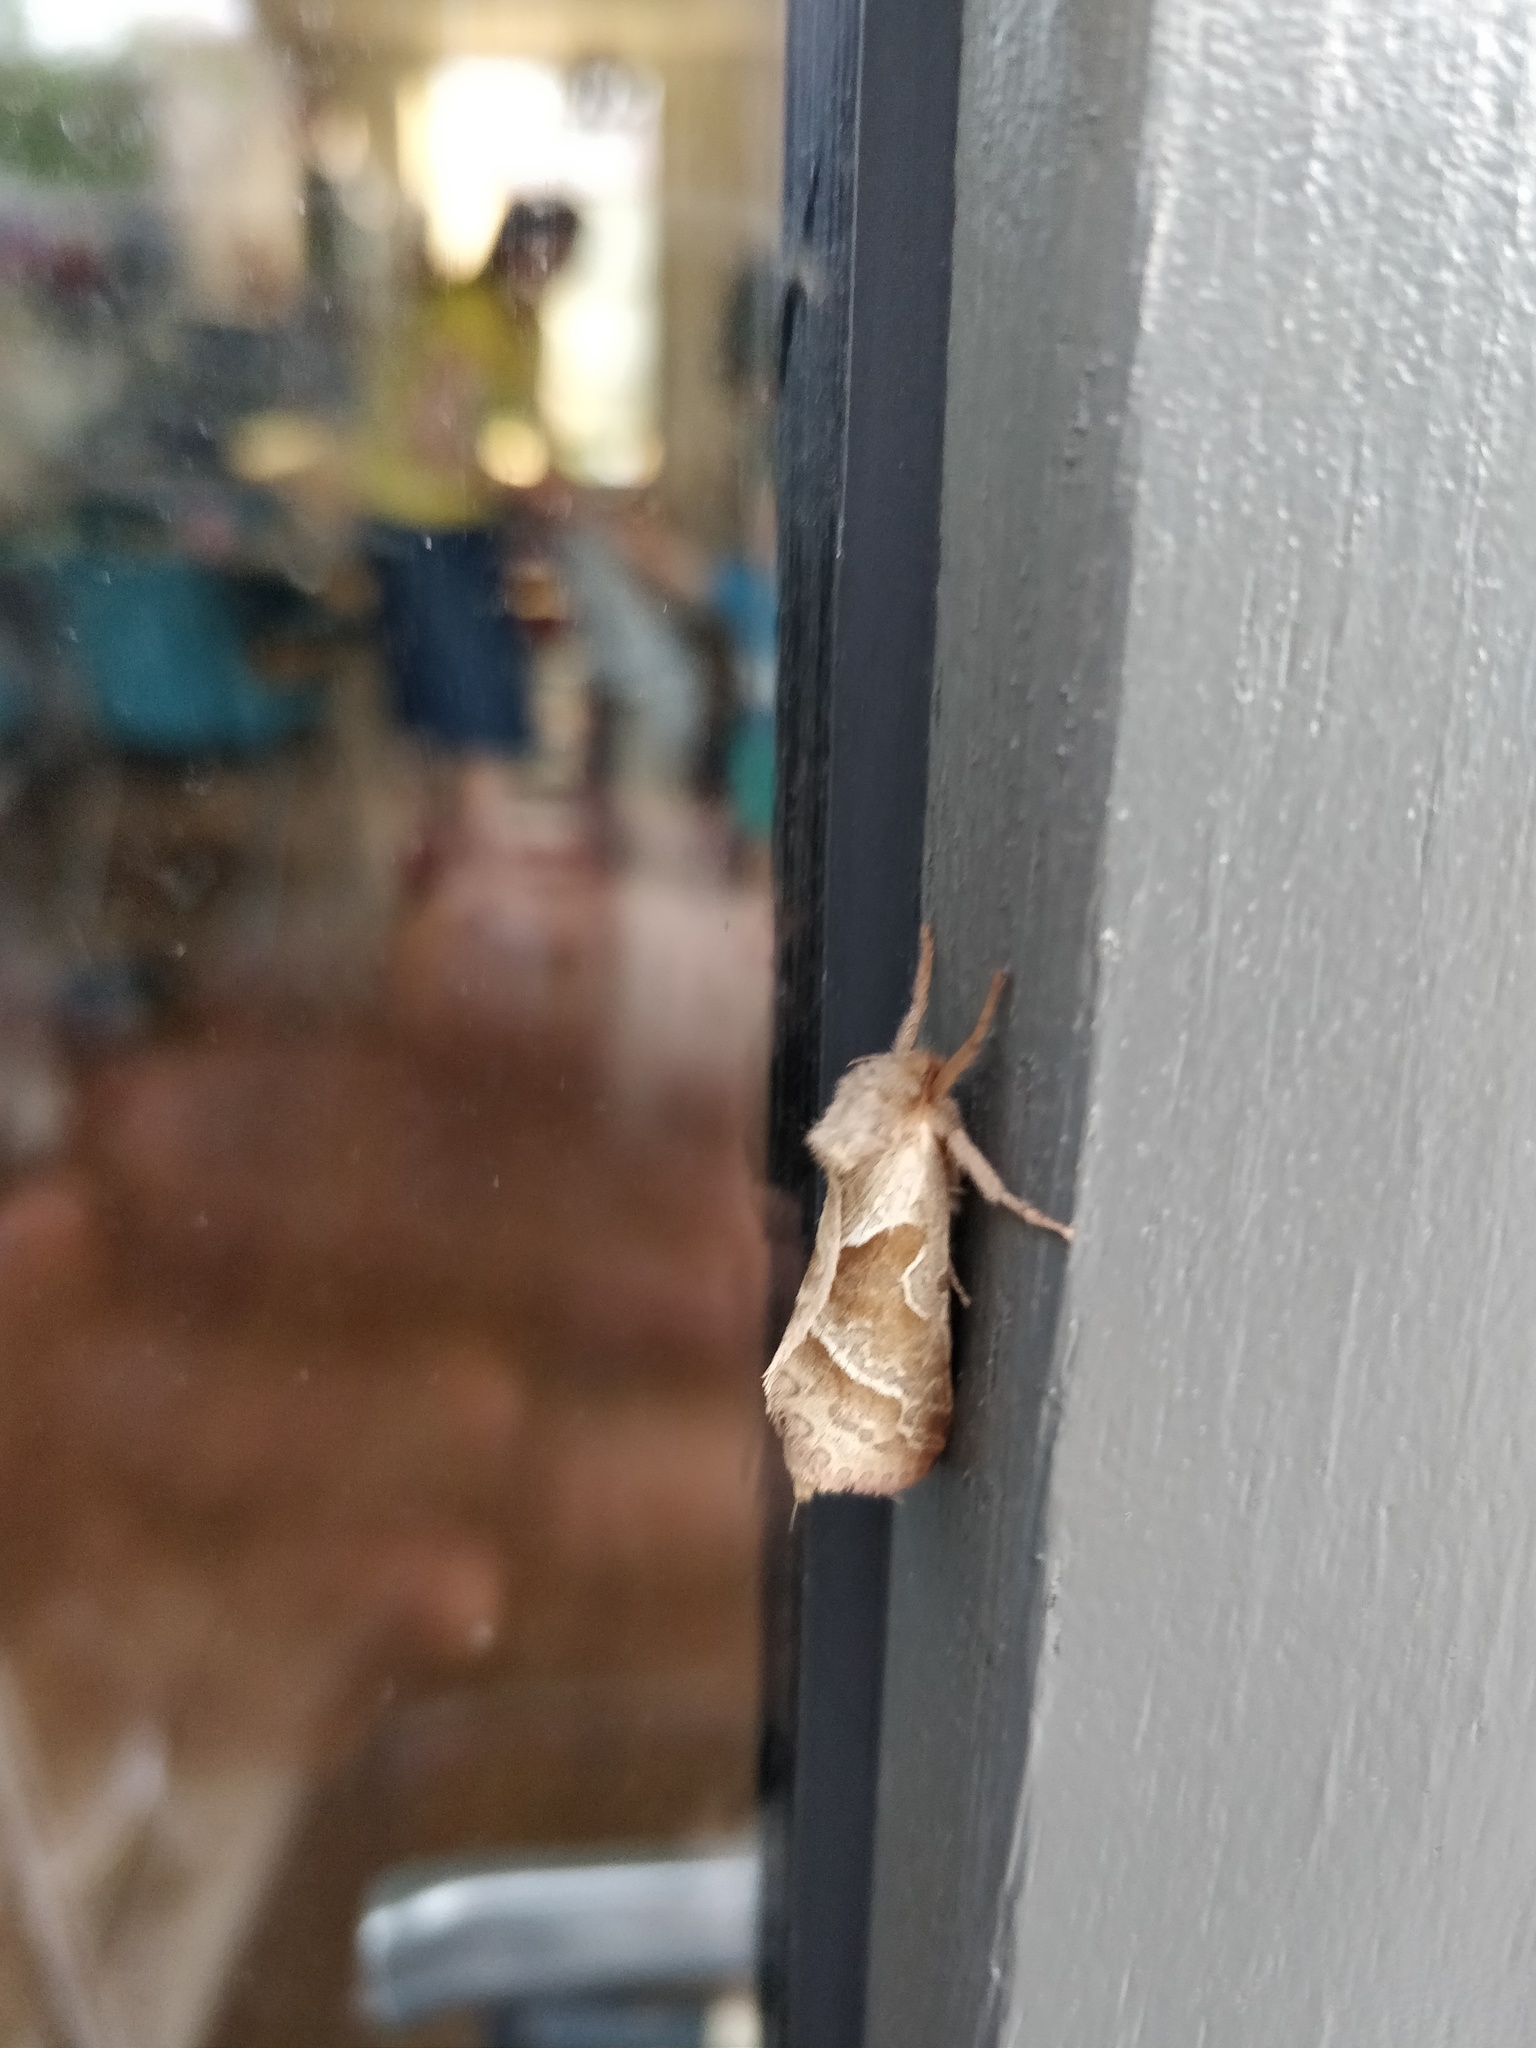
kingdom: Animalia
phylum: Arthropoda
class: Insecta
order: Lepidoptera
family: Hepialidae
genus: Triodia
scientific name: Triodia sylvina
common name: Orange swift
